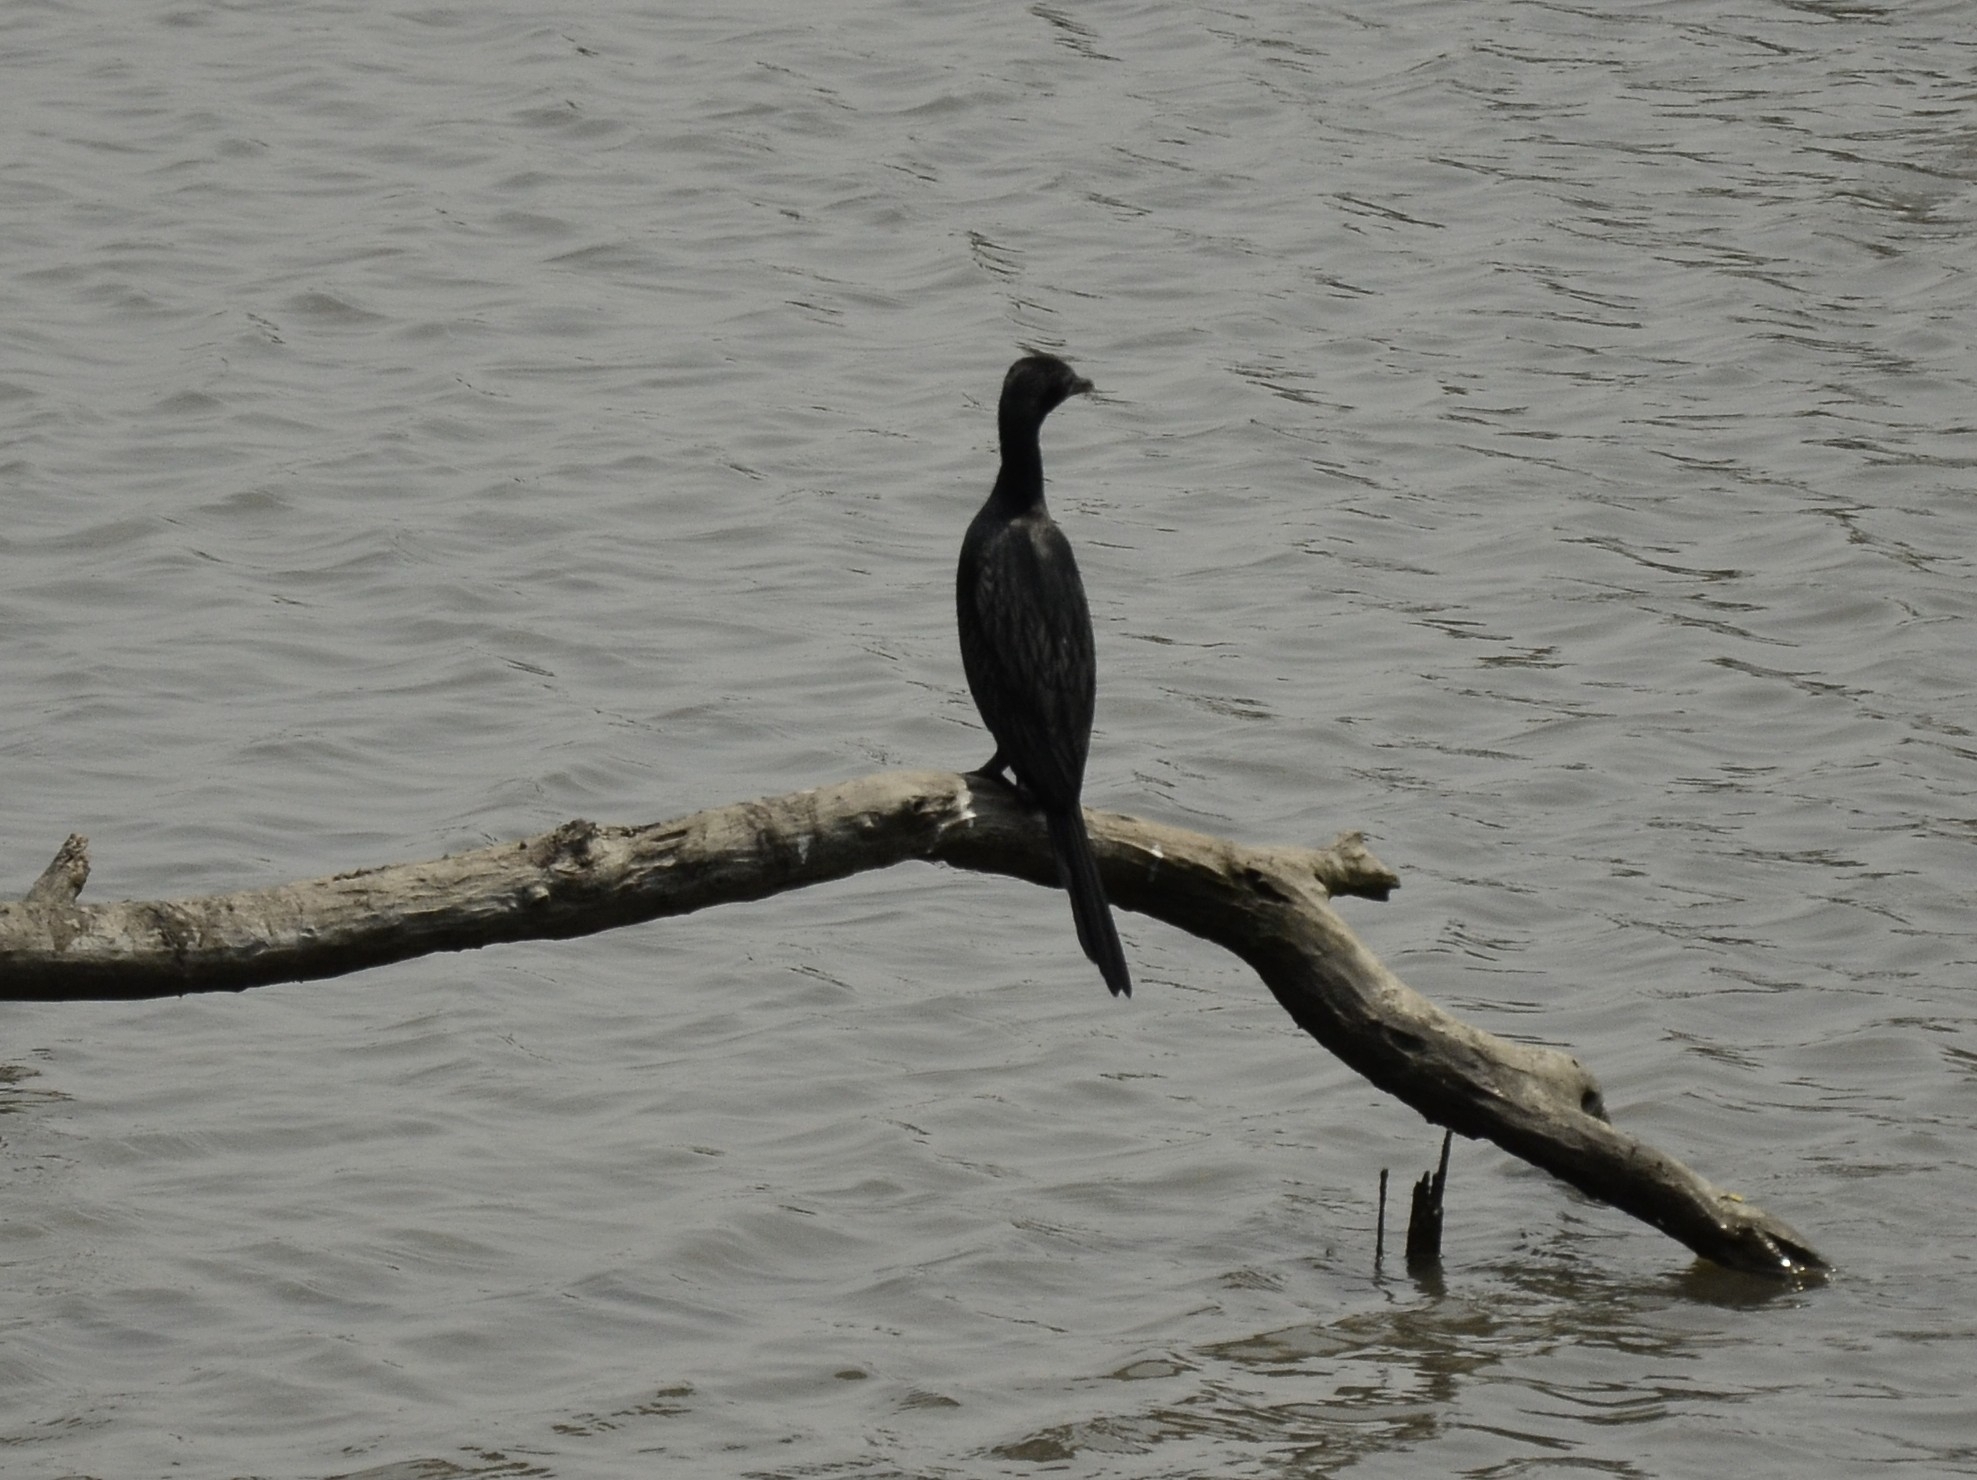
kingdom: Animalia
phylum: Chordata
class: Aves
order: Suliformes
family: Phalacrocoracidae
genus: Microcarbo
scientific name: Microcarbo niger
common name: Little cormorant
